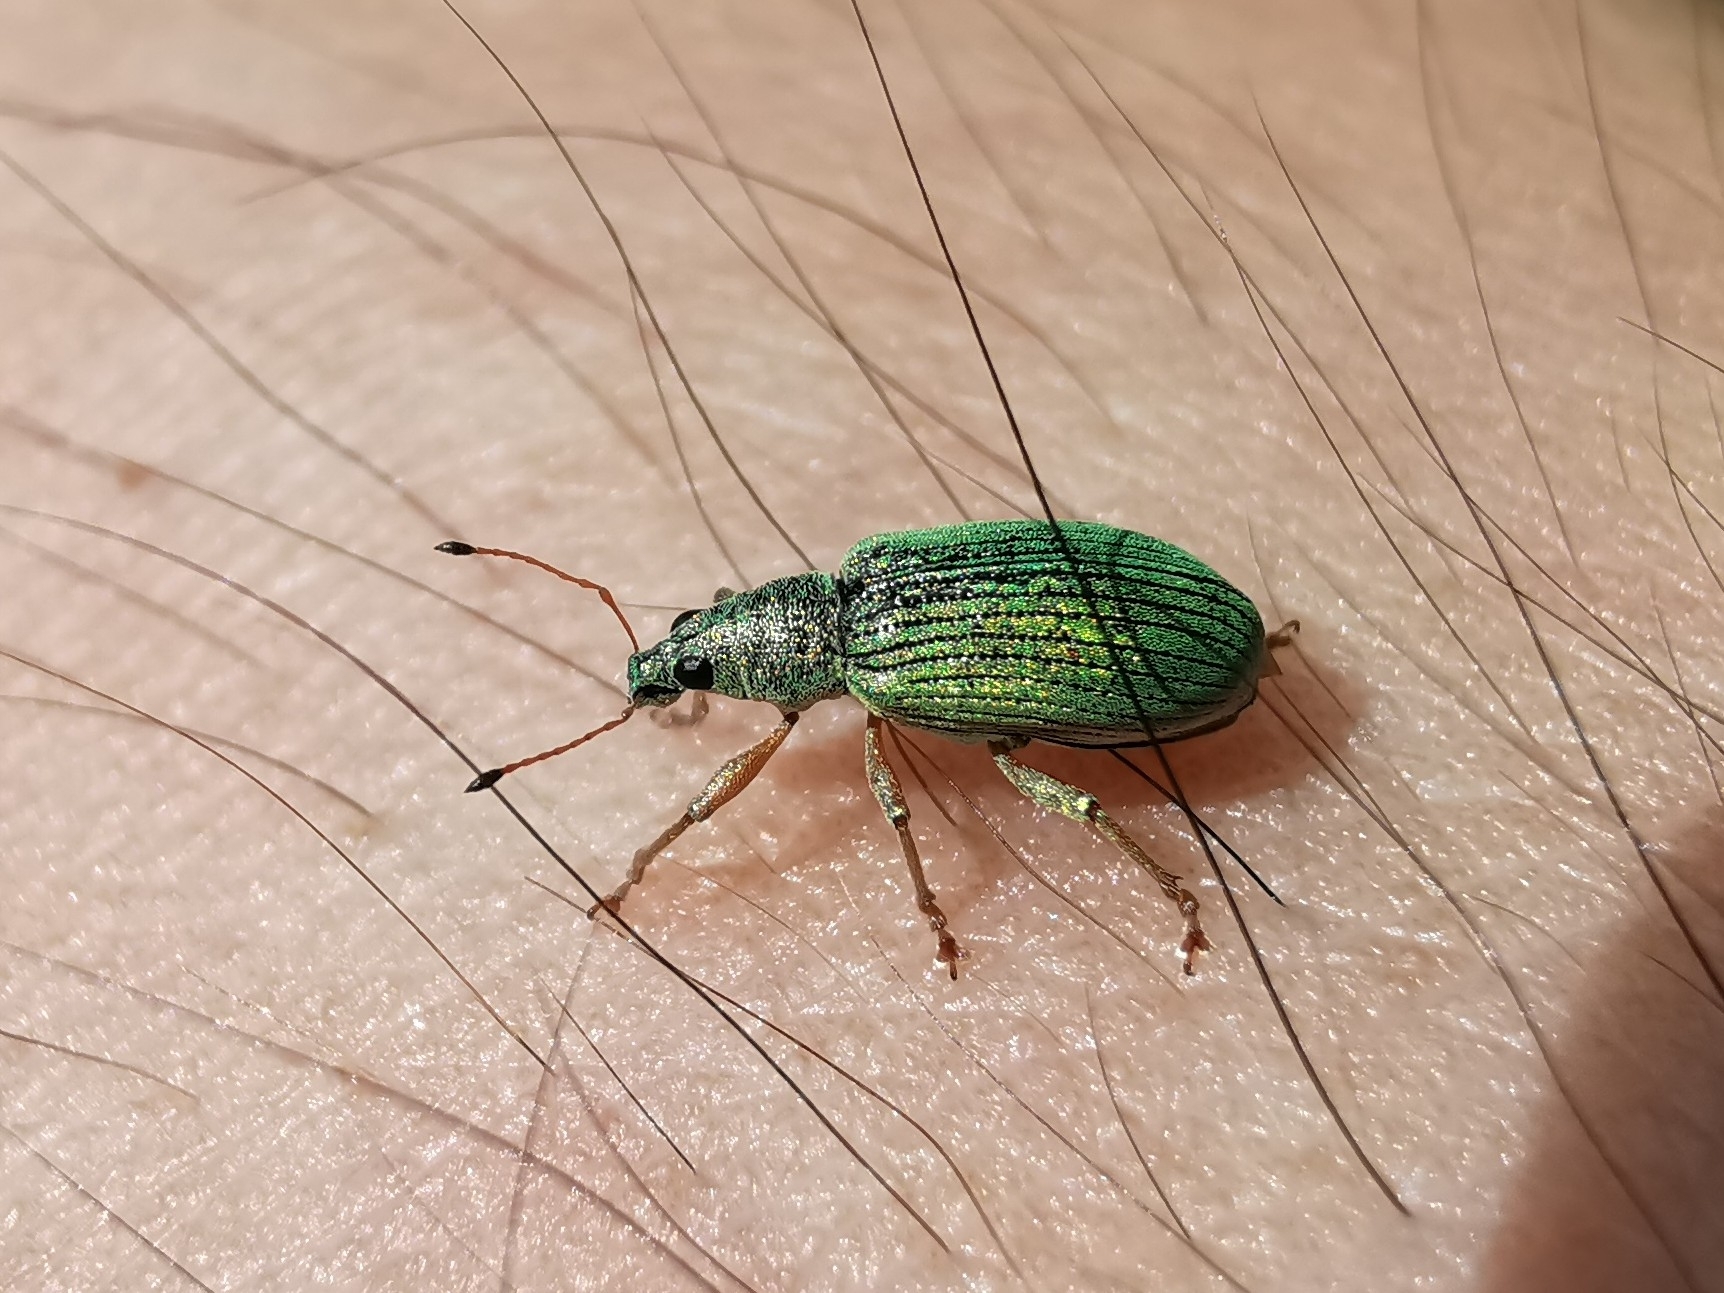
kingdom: Animalia
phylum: Arthropoda
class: Insecta
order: Coleoptera
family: Curculionidae
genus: Polydrusus
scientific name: Polydrusus formosus
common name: Weevil
